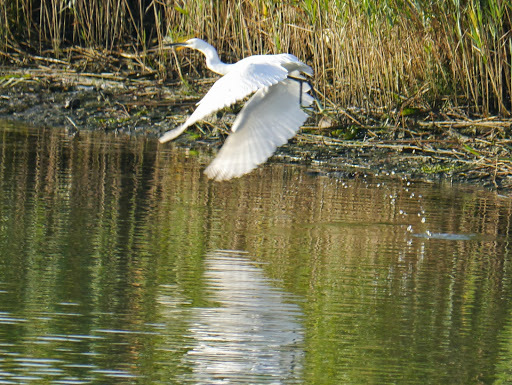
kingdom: Animalia
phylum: Chordata
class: Aves
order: Pelecaniformes
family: Ardeidae
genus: Egretta
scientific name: Egretta garzetta
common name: Little egret
